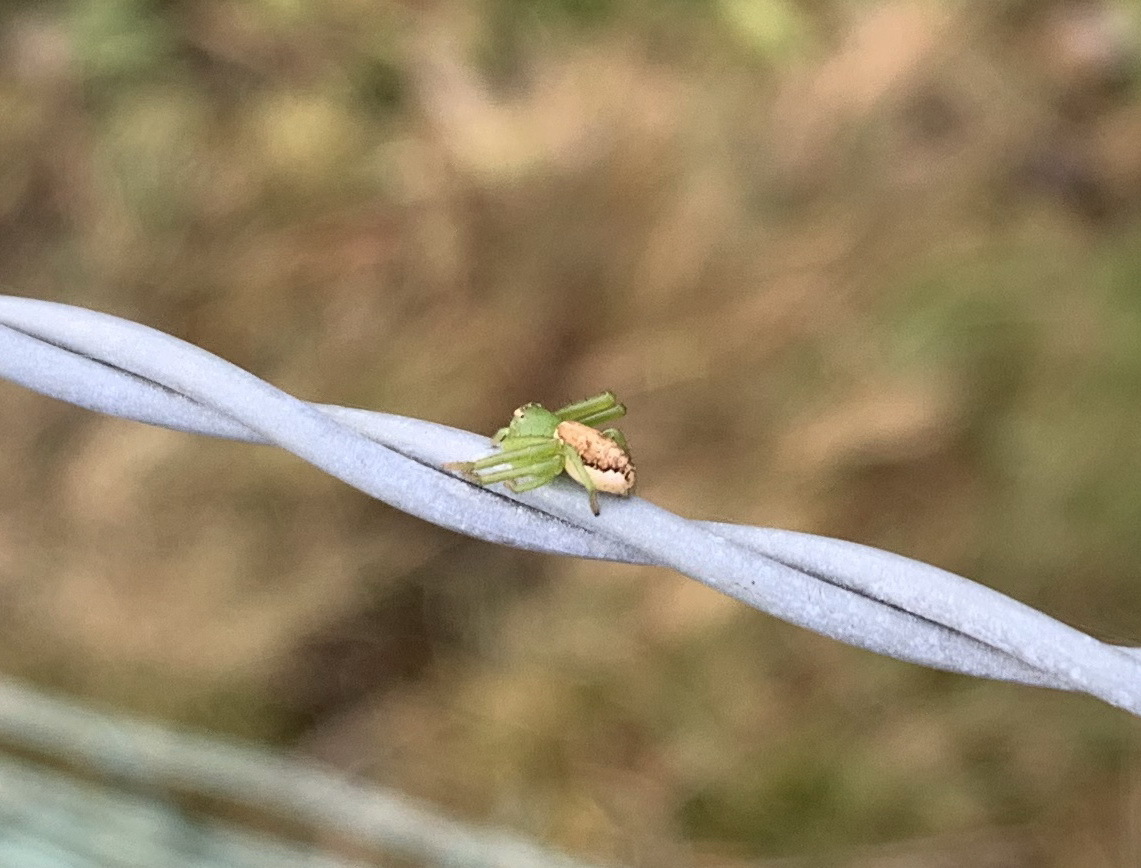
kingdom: Animalia
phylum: Arthropoda
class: Arachnida
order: Araneae
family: Thomisidae
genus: Diaea
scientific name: Diaea dorsata
